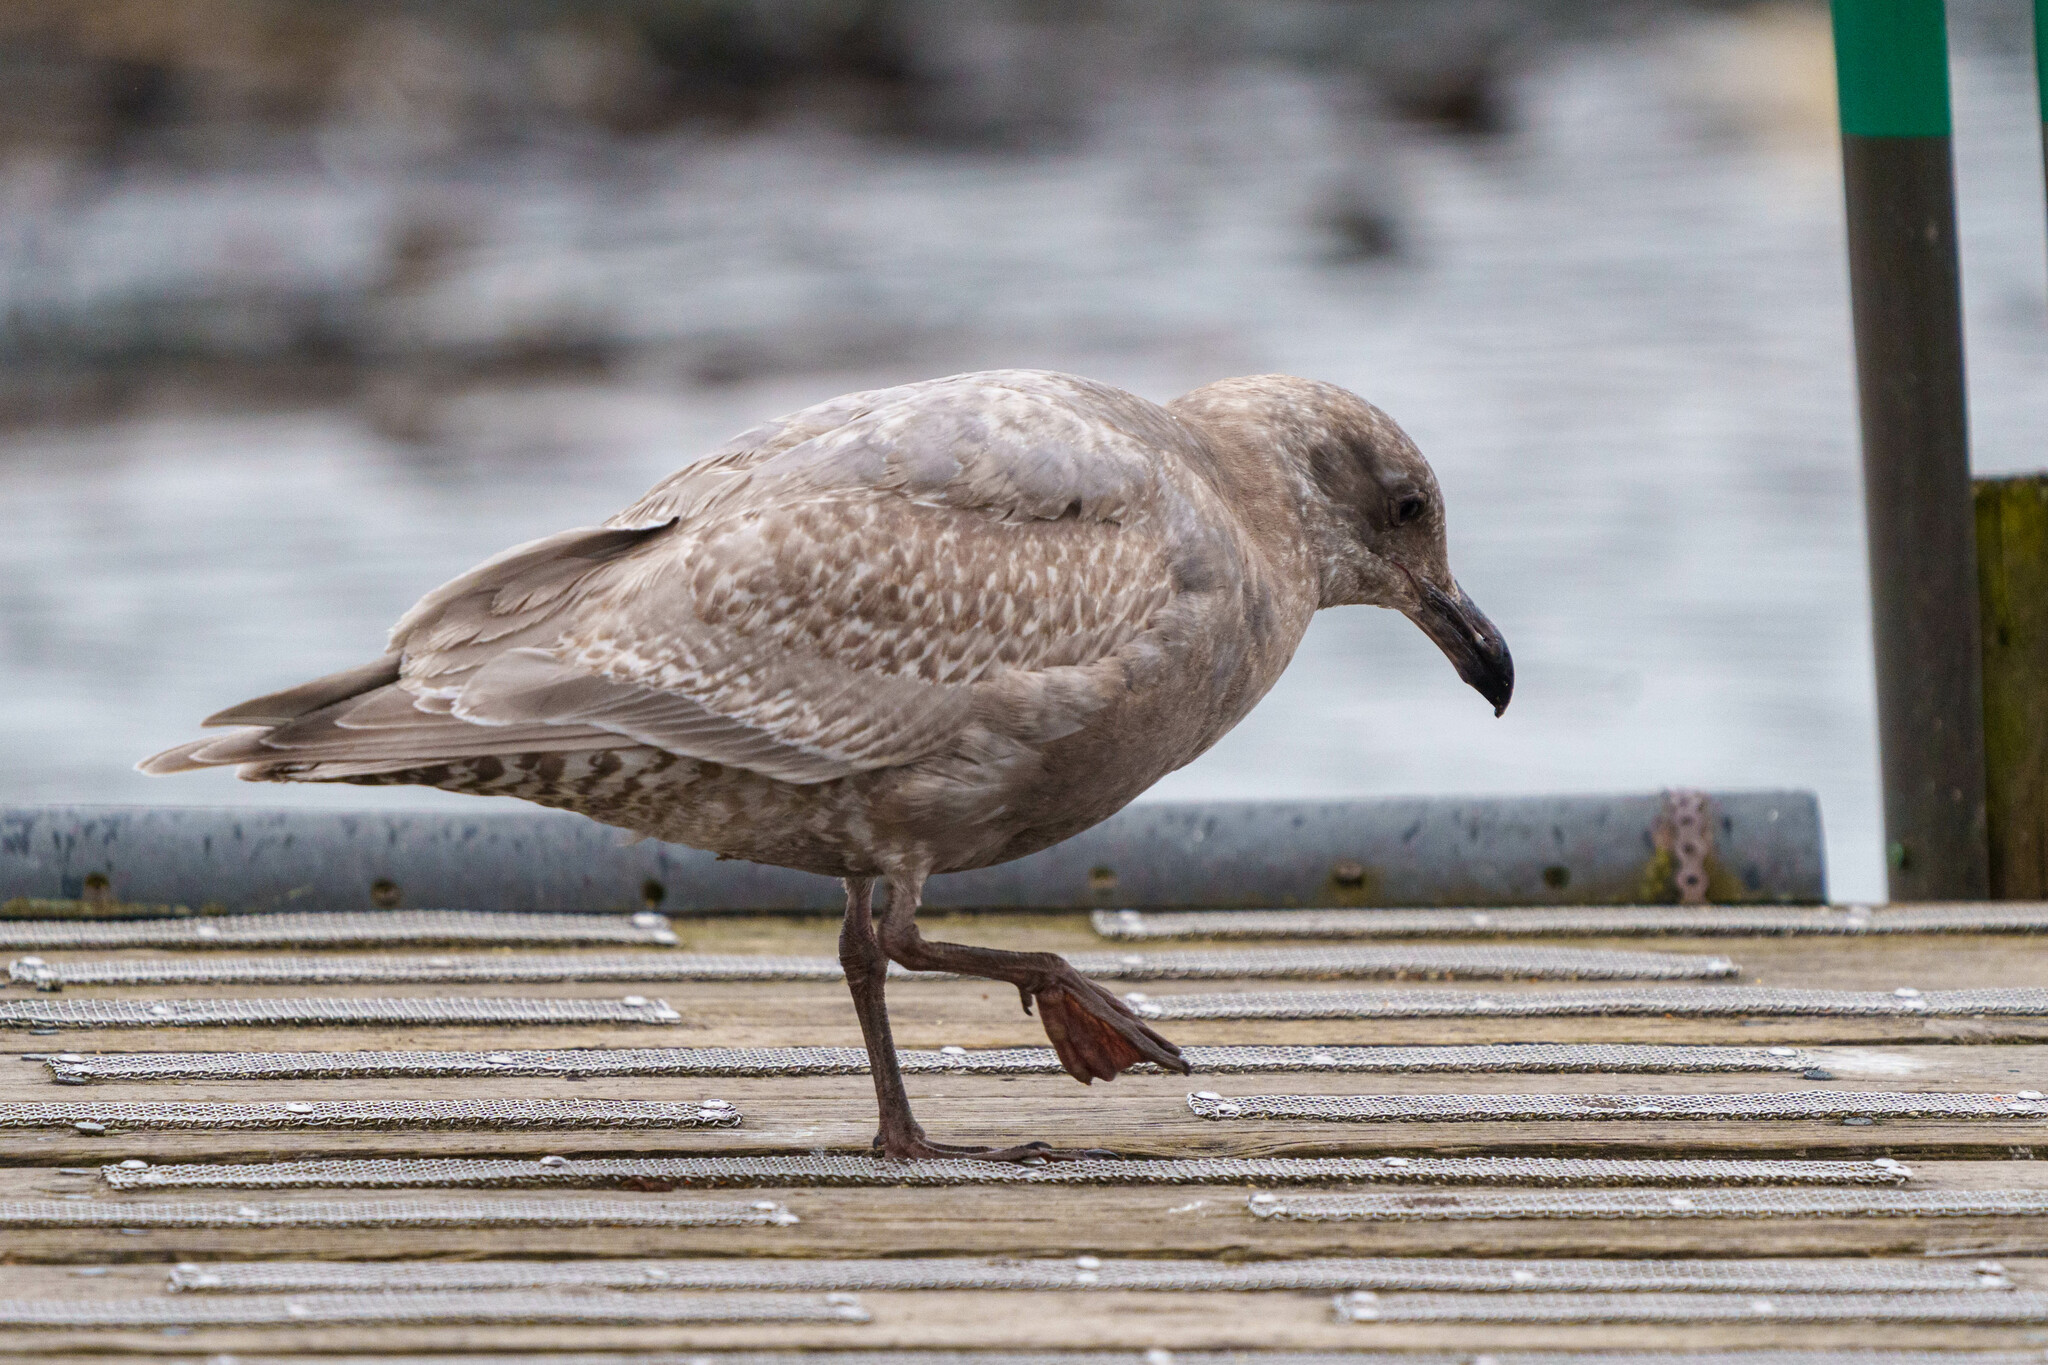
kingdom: Animalia
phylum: Chordata
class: Aves
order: Charadriiformes
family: Laridae
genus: Larus
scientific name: Larus glaucescens
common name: Glaucous-winged gull
